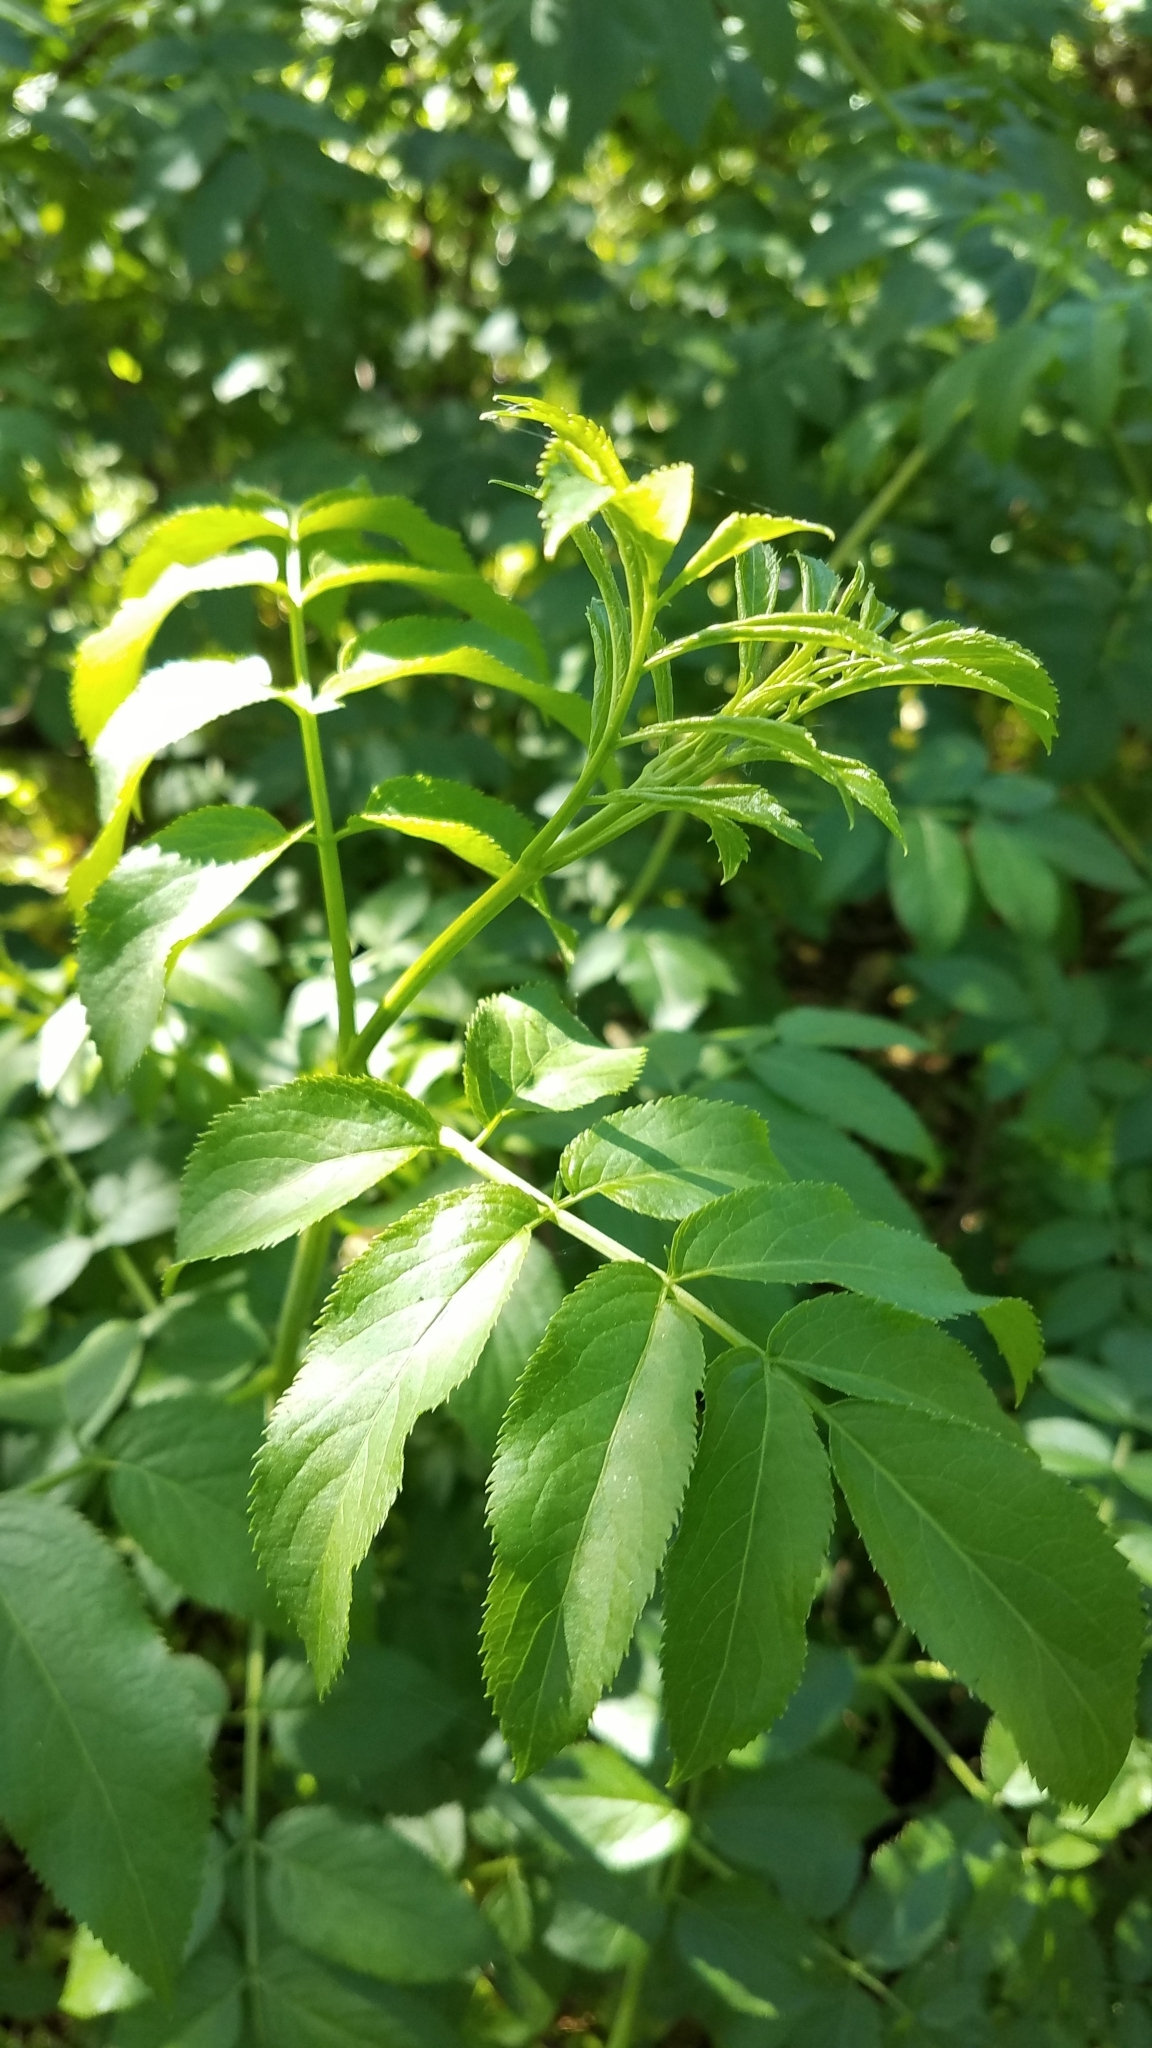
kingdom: Plantae
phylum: Tracheophyta
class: Magnoliopsida
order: Dipsacales
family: Viburnaceae
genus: Sambucus
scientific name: Sambucus cerulea
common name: Blue elder
